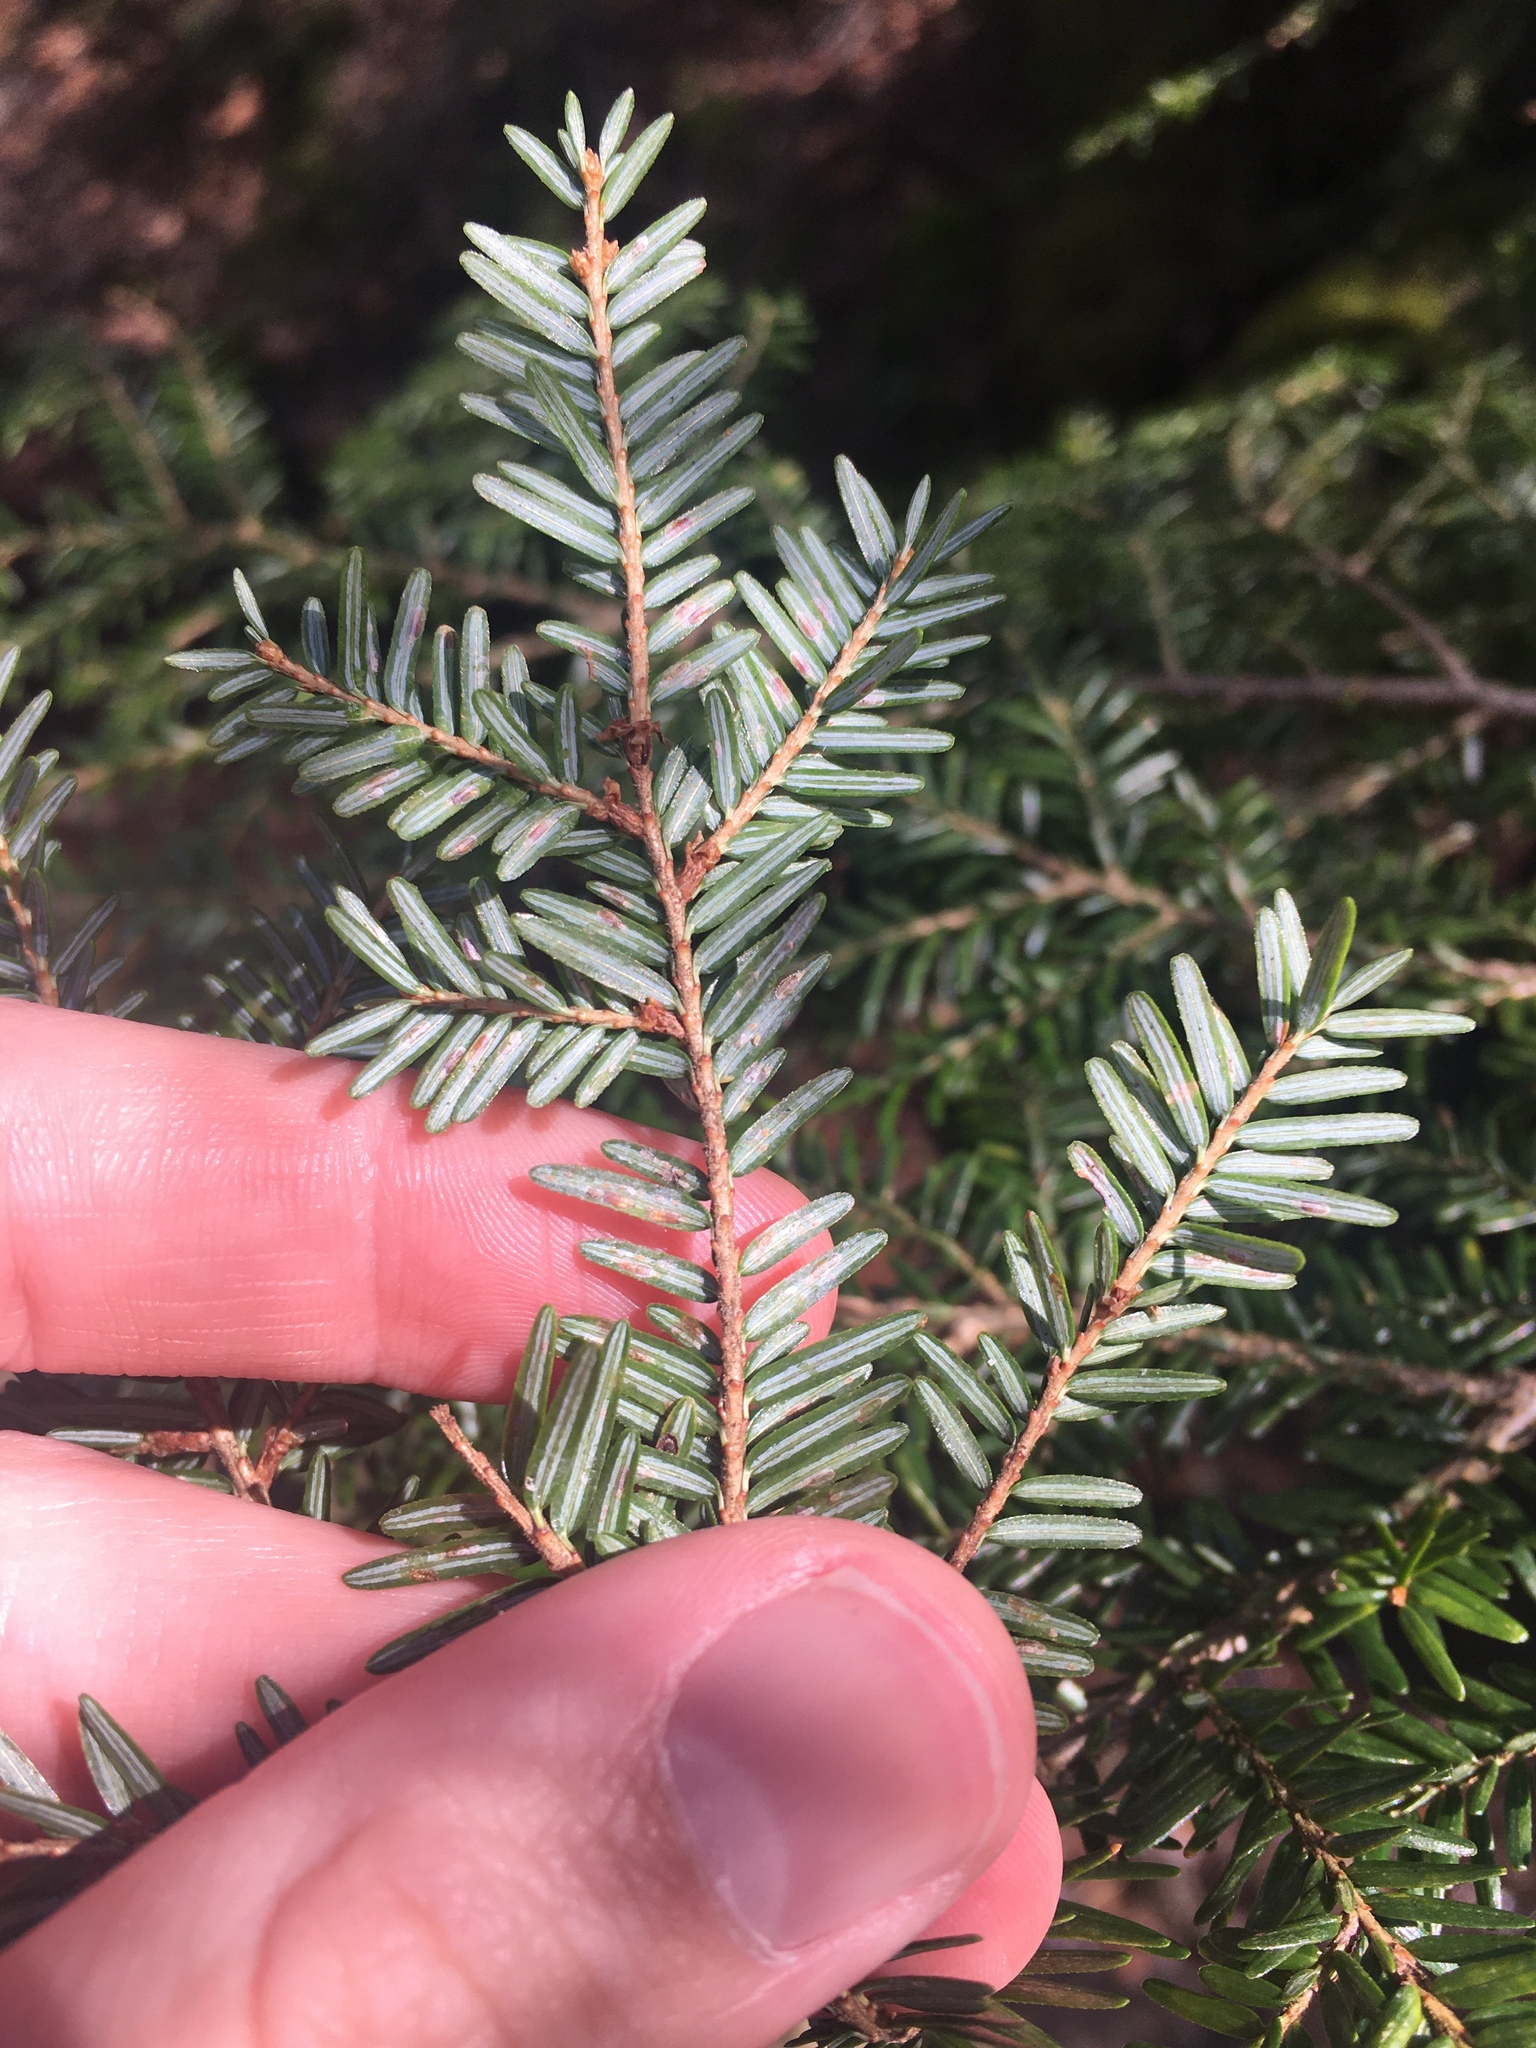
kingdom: Animalia
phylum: Arthropoda
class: Insecta
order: Hemiptera
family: Diaspididae
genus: Fiorinia
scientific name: Fiorinia externa
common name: Elongate hemlock scale
